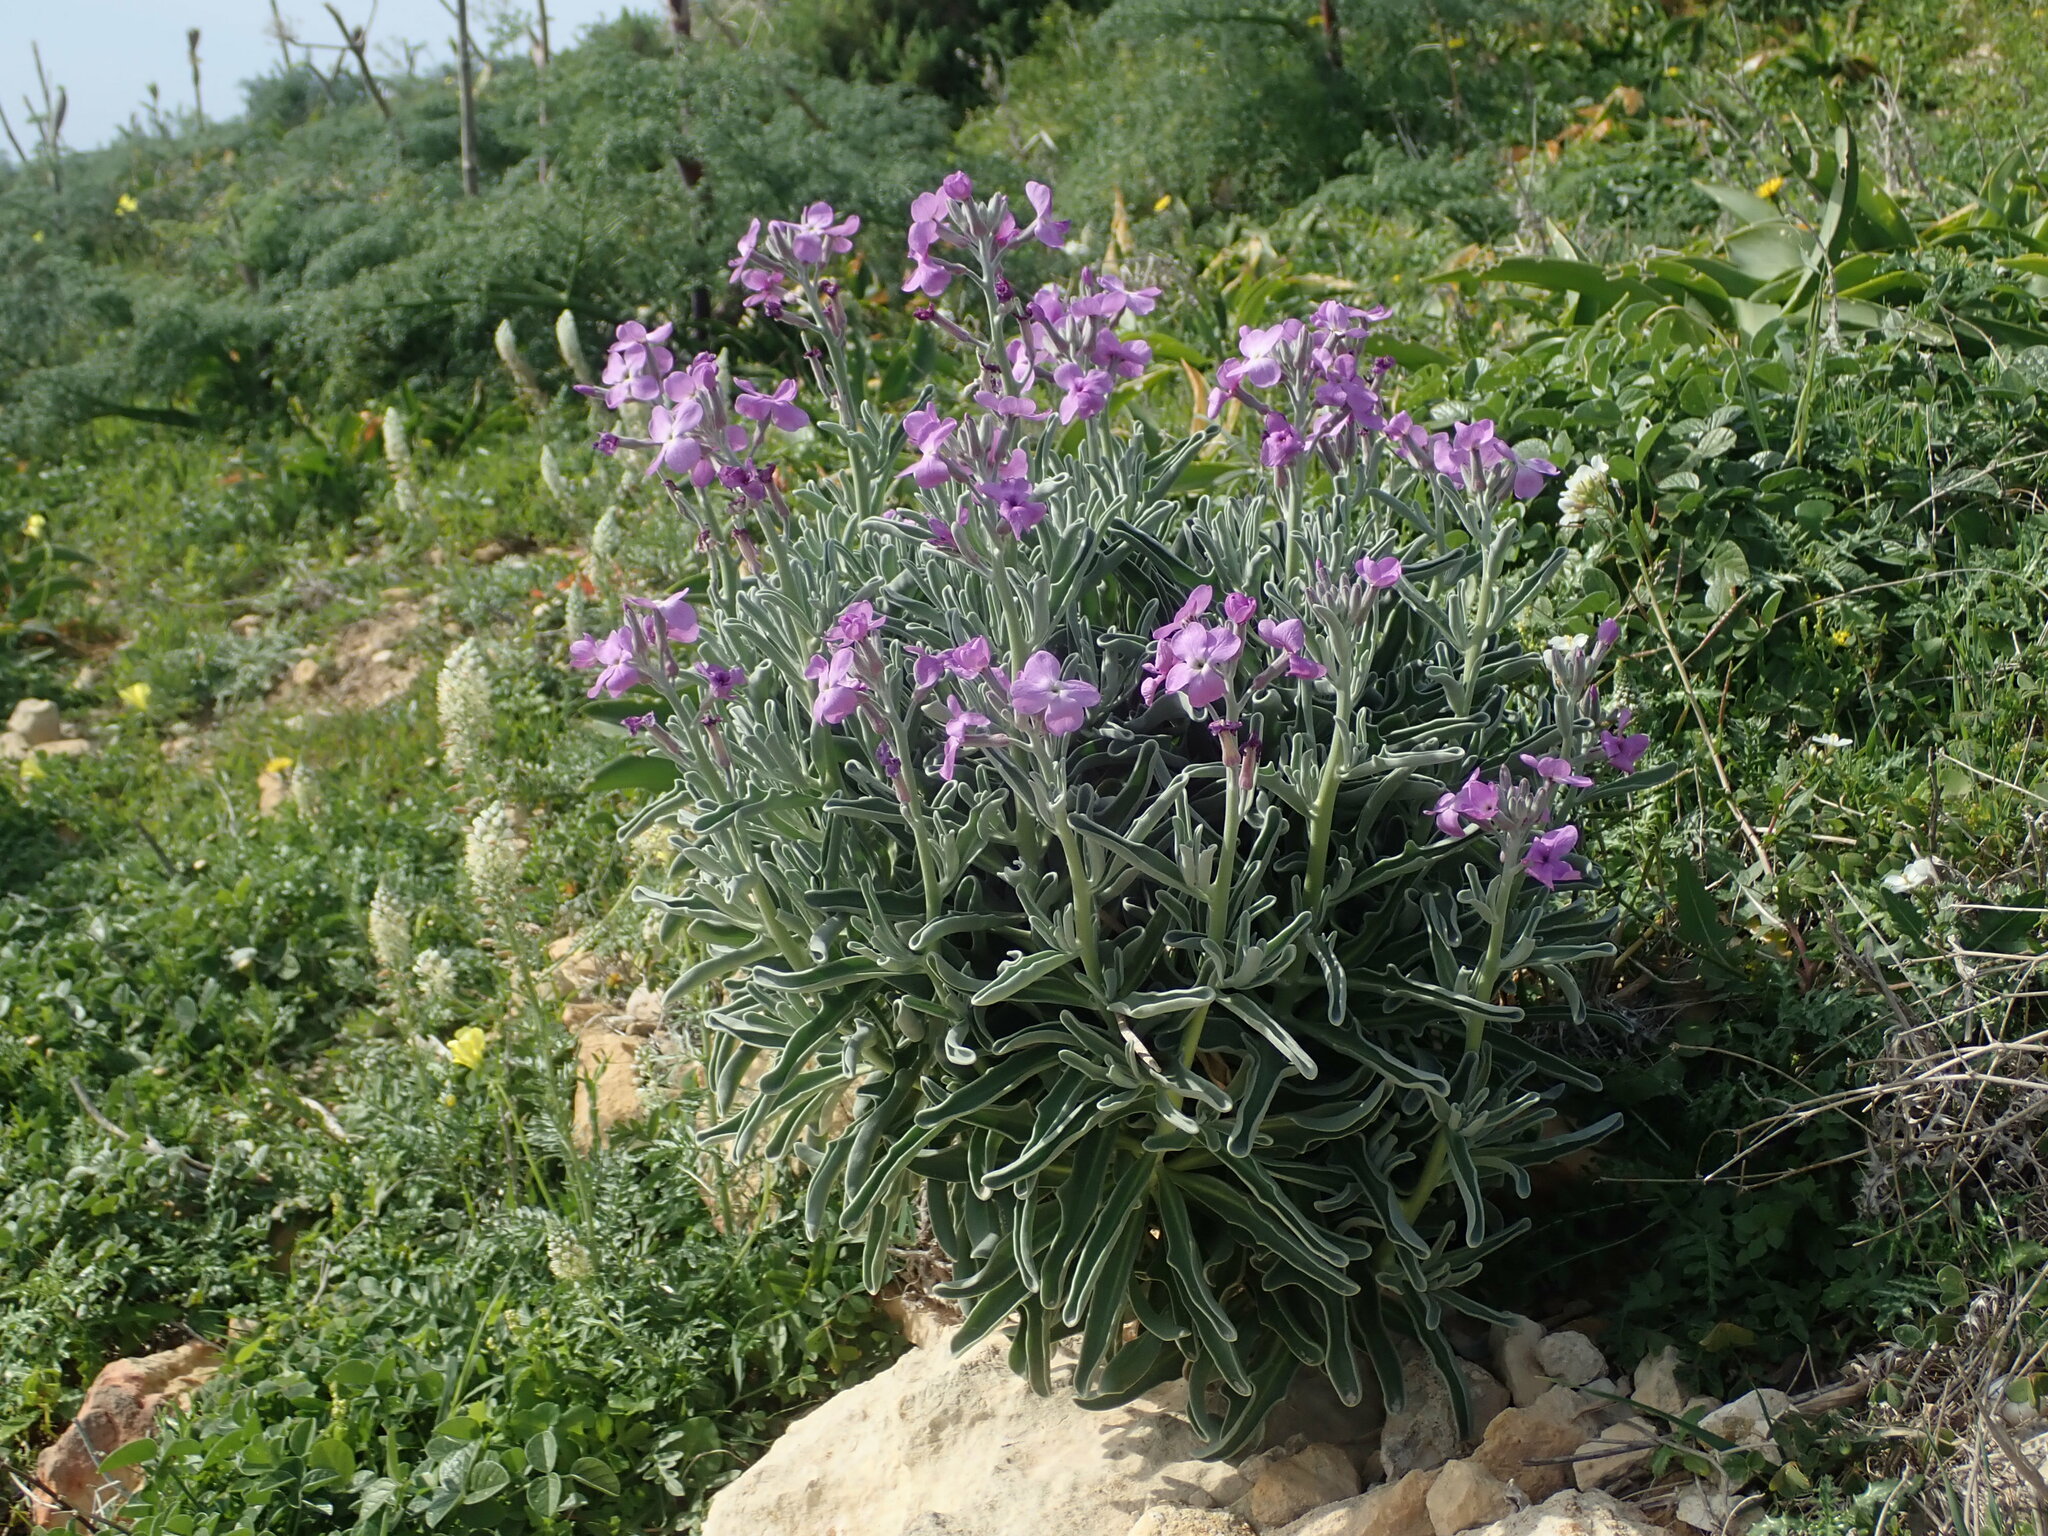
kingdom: Plantae
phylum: Tracheophyta
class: Magnoliopsida
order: Brassicales
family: Brassicaceae
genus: Matthiola
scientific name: Matthiola incana
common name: Hoary stock
